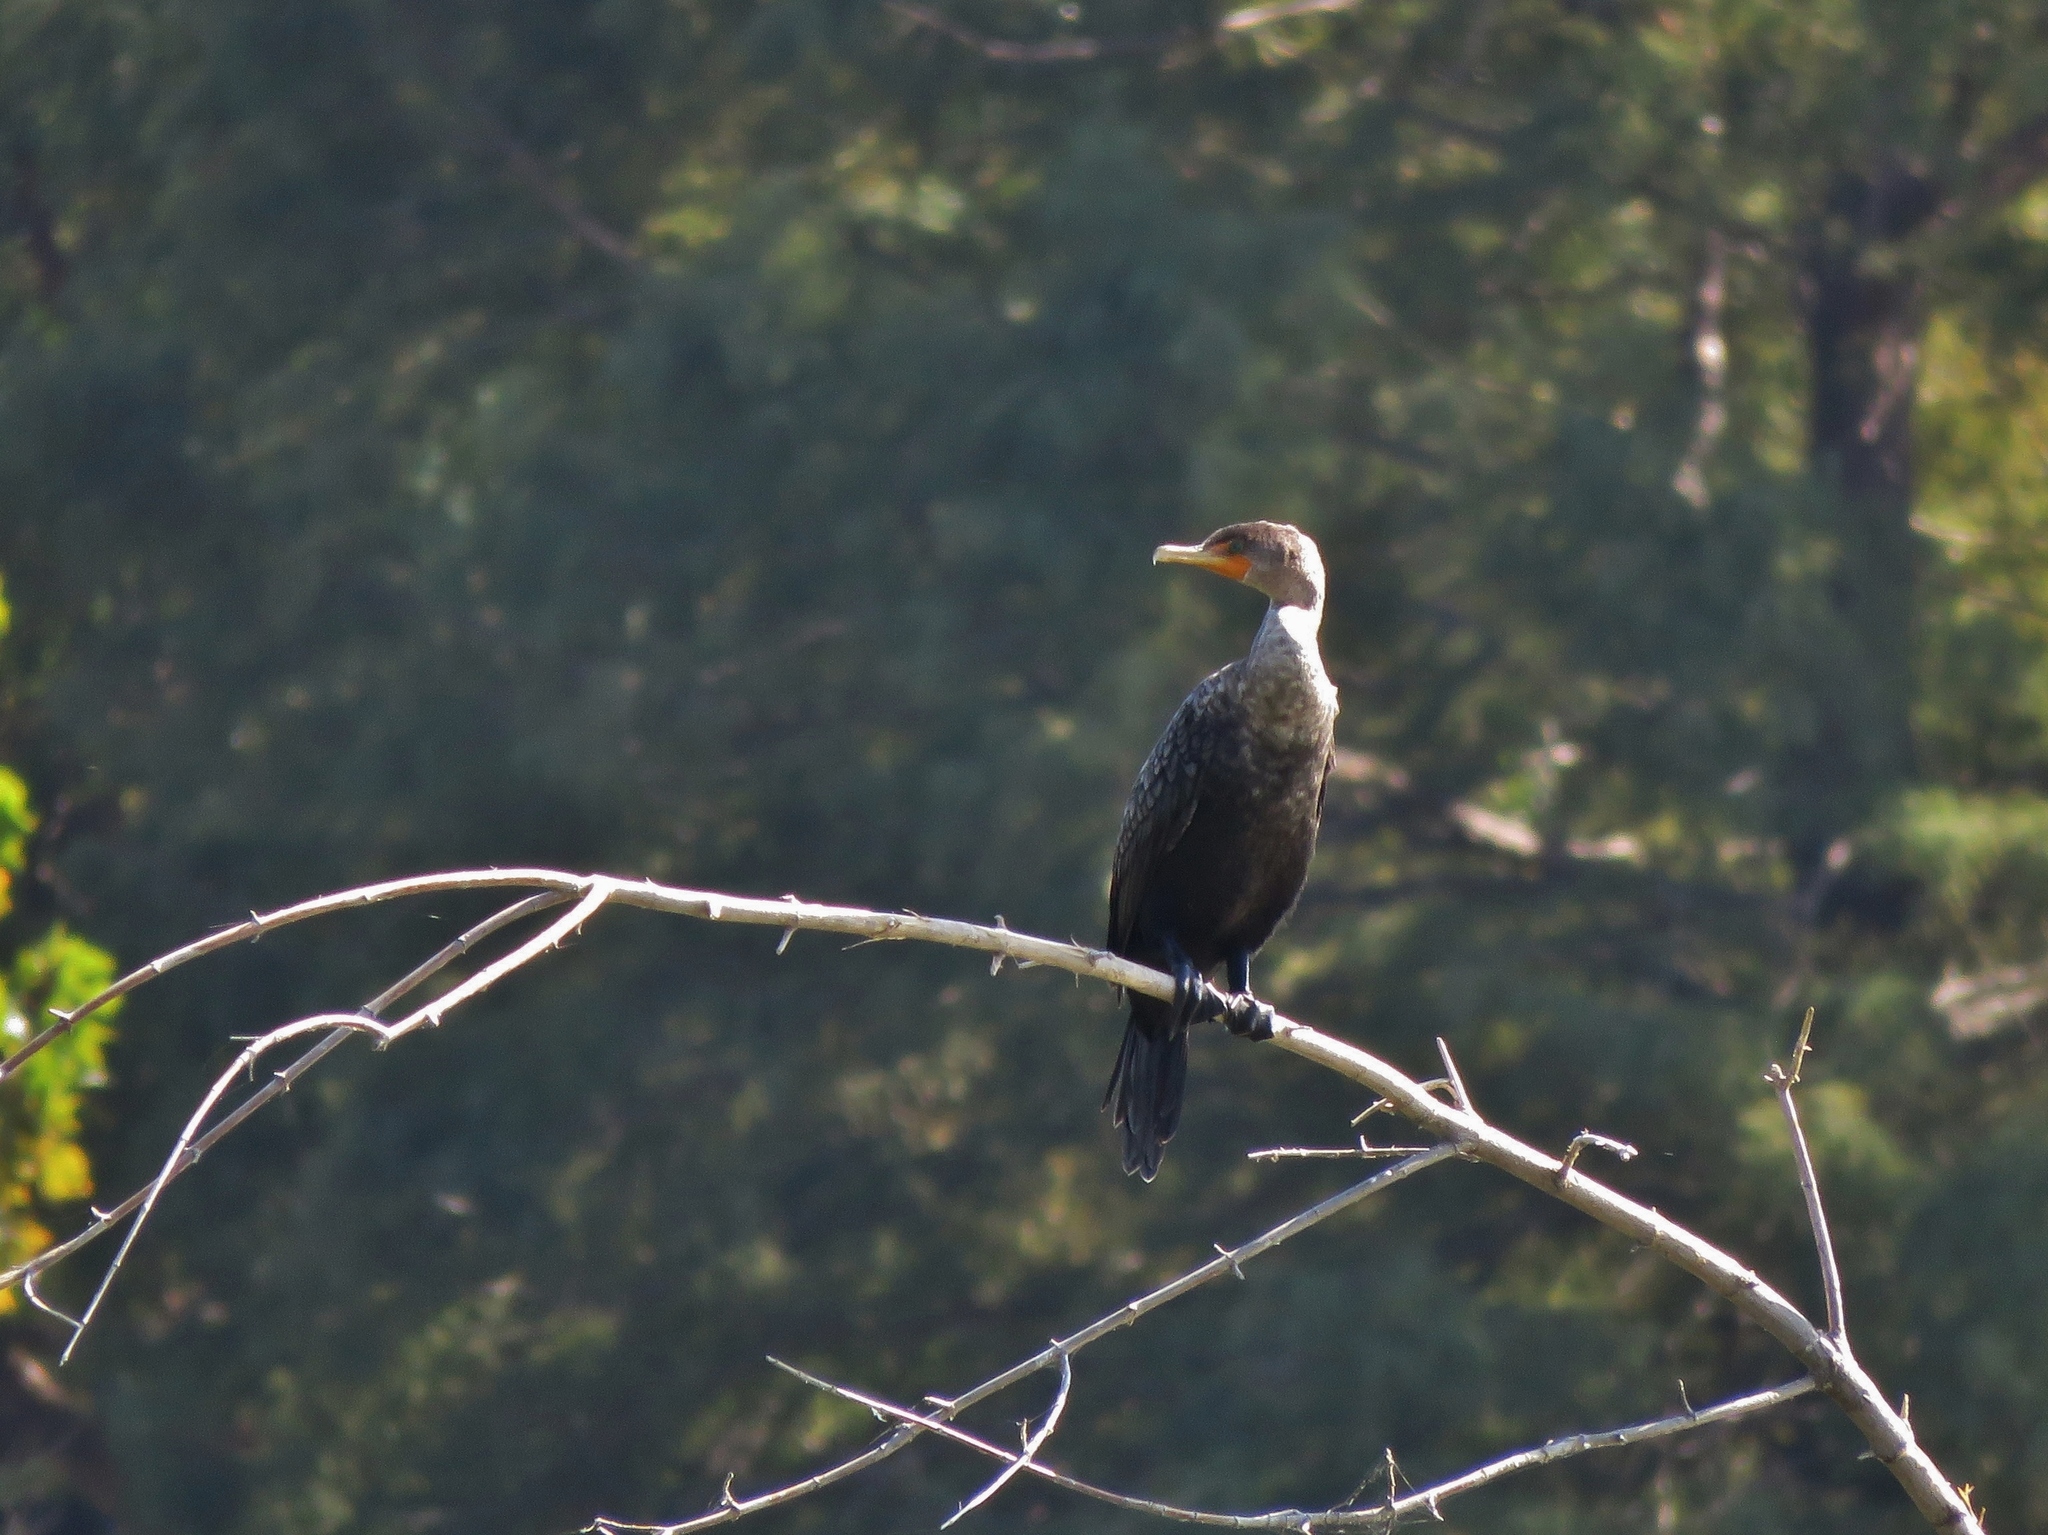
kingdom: Animalia
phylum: Chordata
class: Aves
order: Suliformes
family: Phalacrocoracidae
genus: Phalacrocorax
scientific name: Phalacrocorax auritus
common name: Double-crested cormorant
